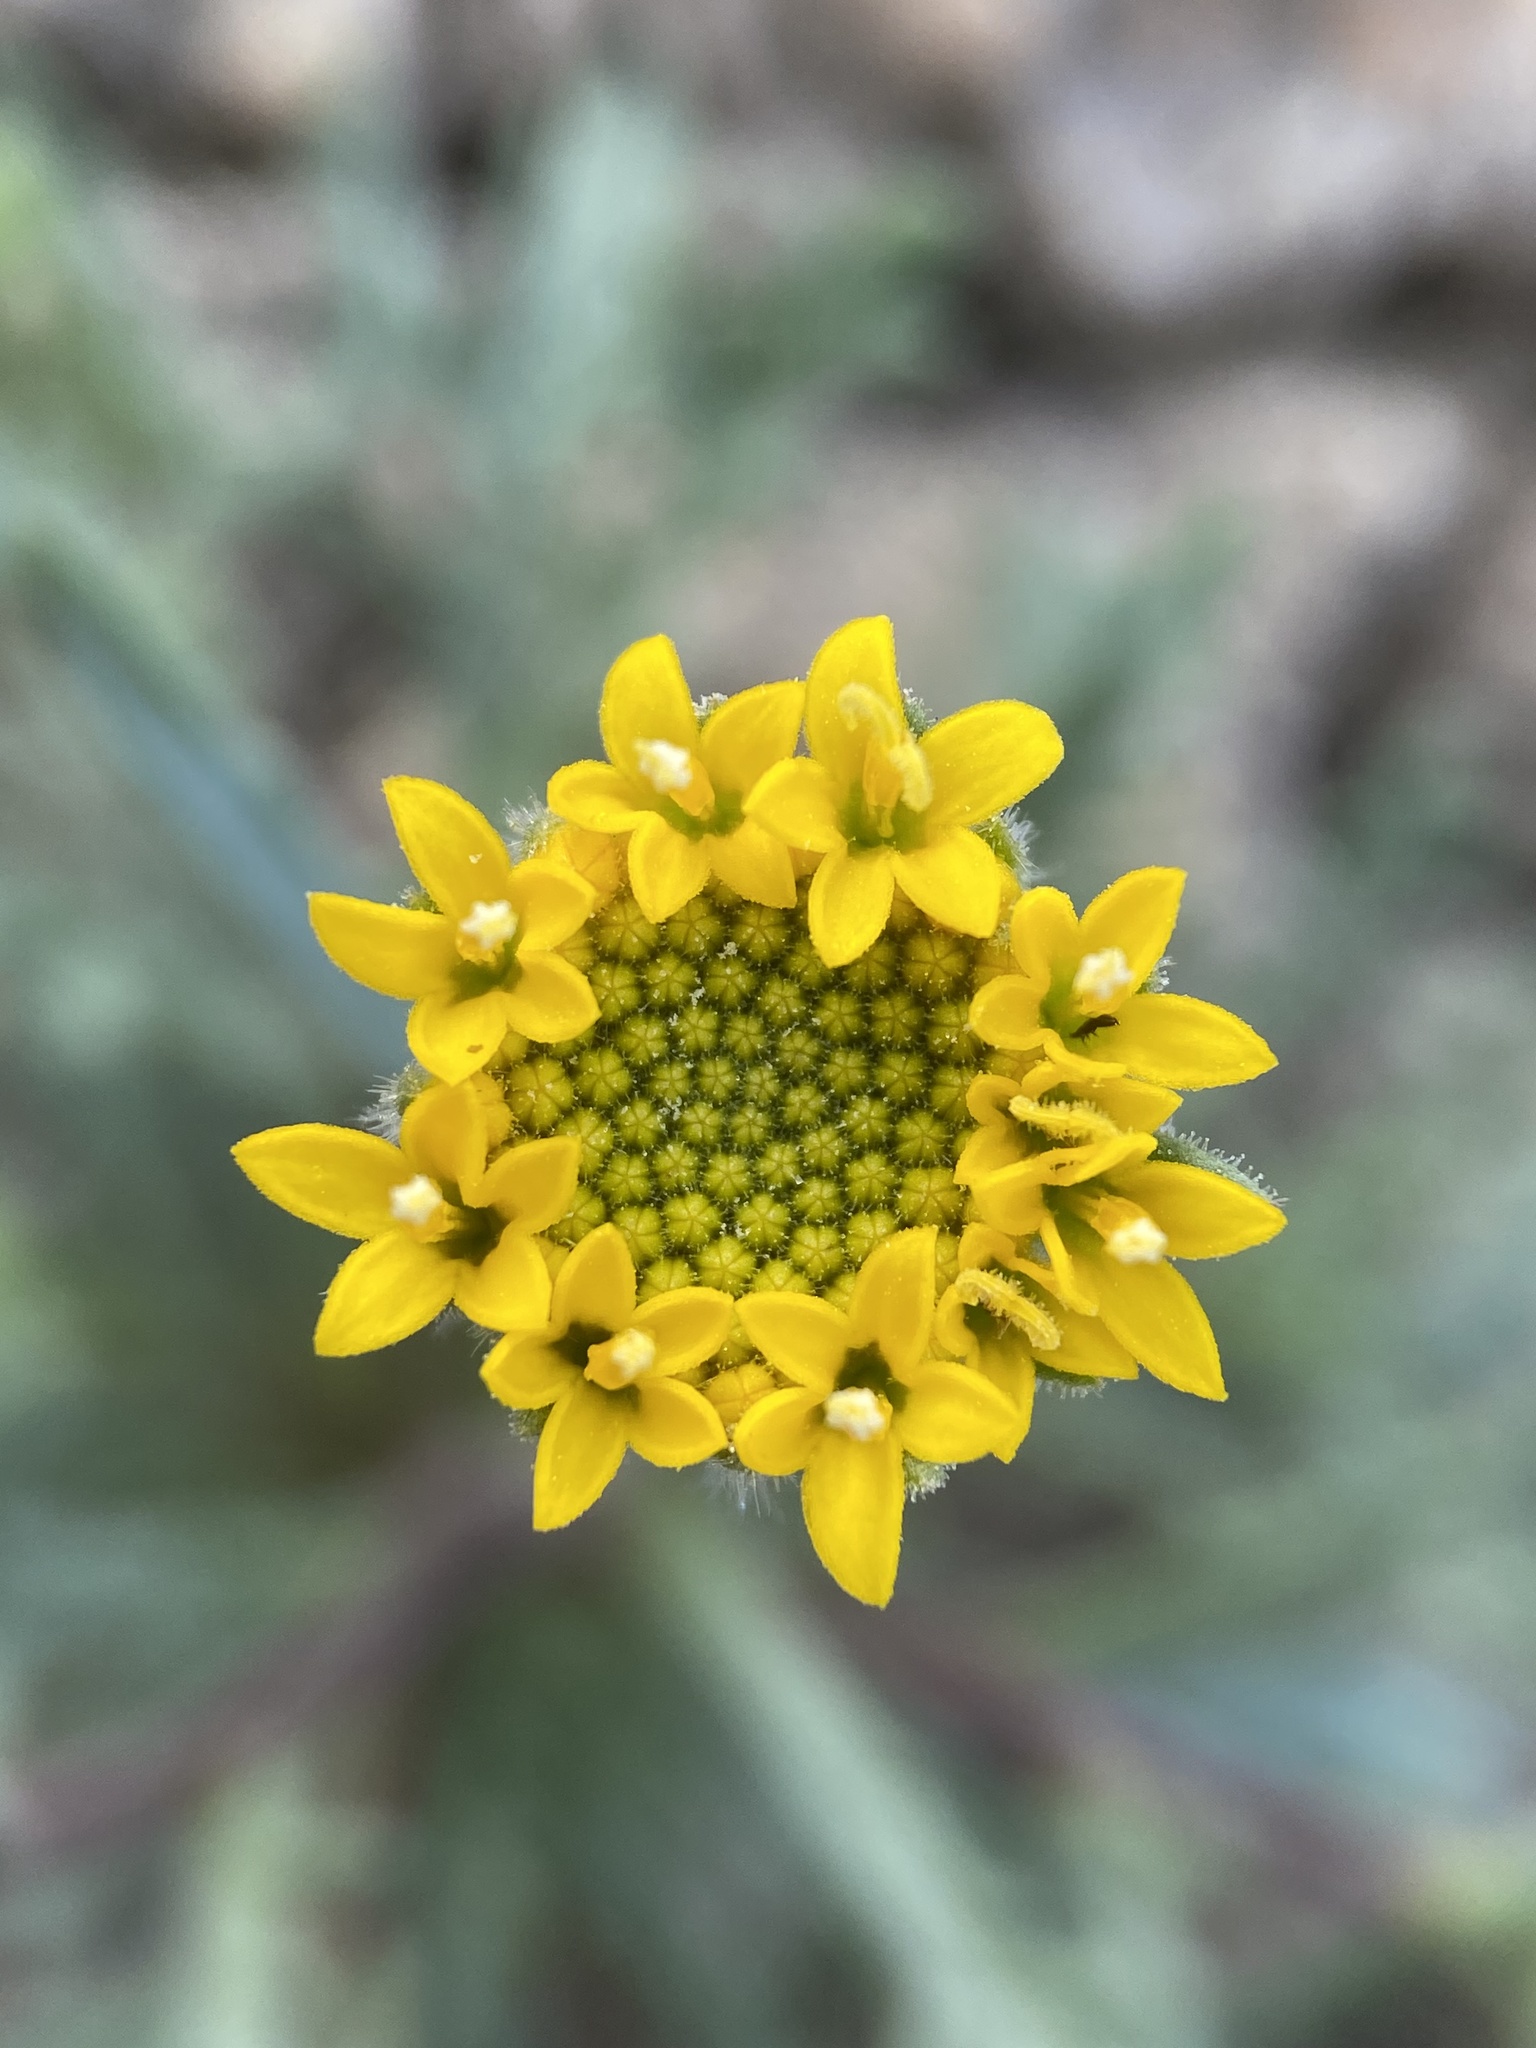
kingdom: Plantae
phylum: Tracheophyta
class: Magnoliopsida
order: Asterales
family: Asteraceae
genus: Chaenactis
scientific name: Chaenactis nevii
